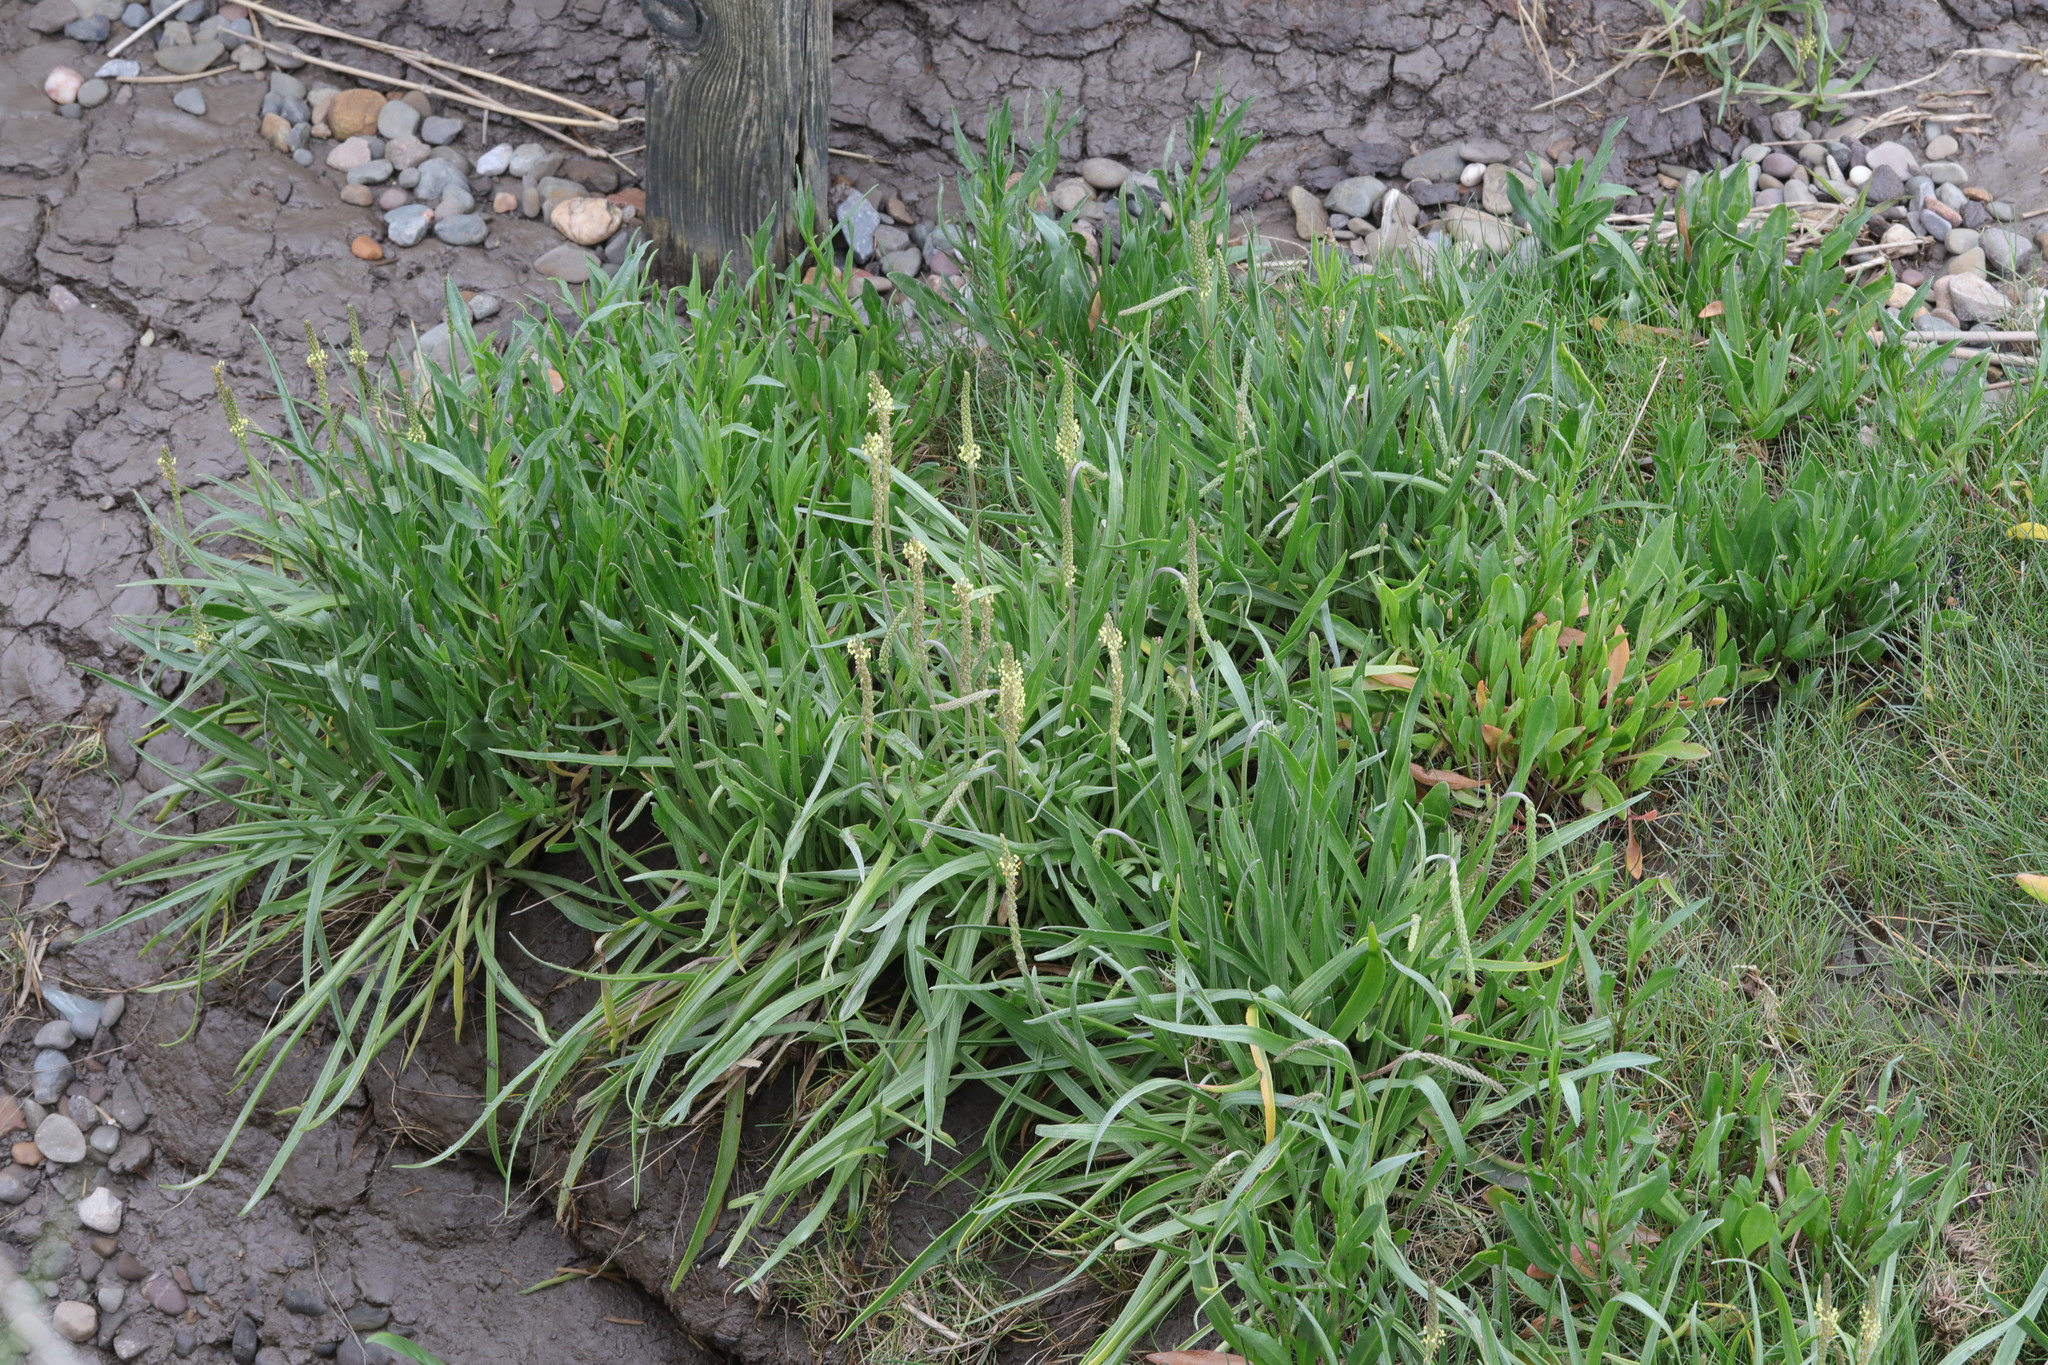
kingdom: Plantae
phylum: Tracheophyta
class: Magnoliopsida
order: Lamiales
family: Plantaginaceae
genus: Plantago
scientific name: Plantago maritima
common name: Sea plantain
